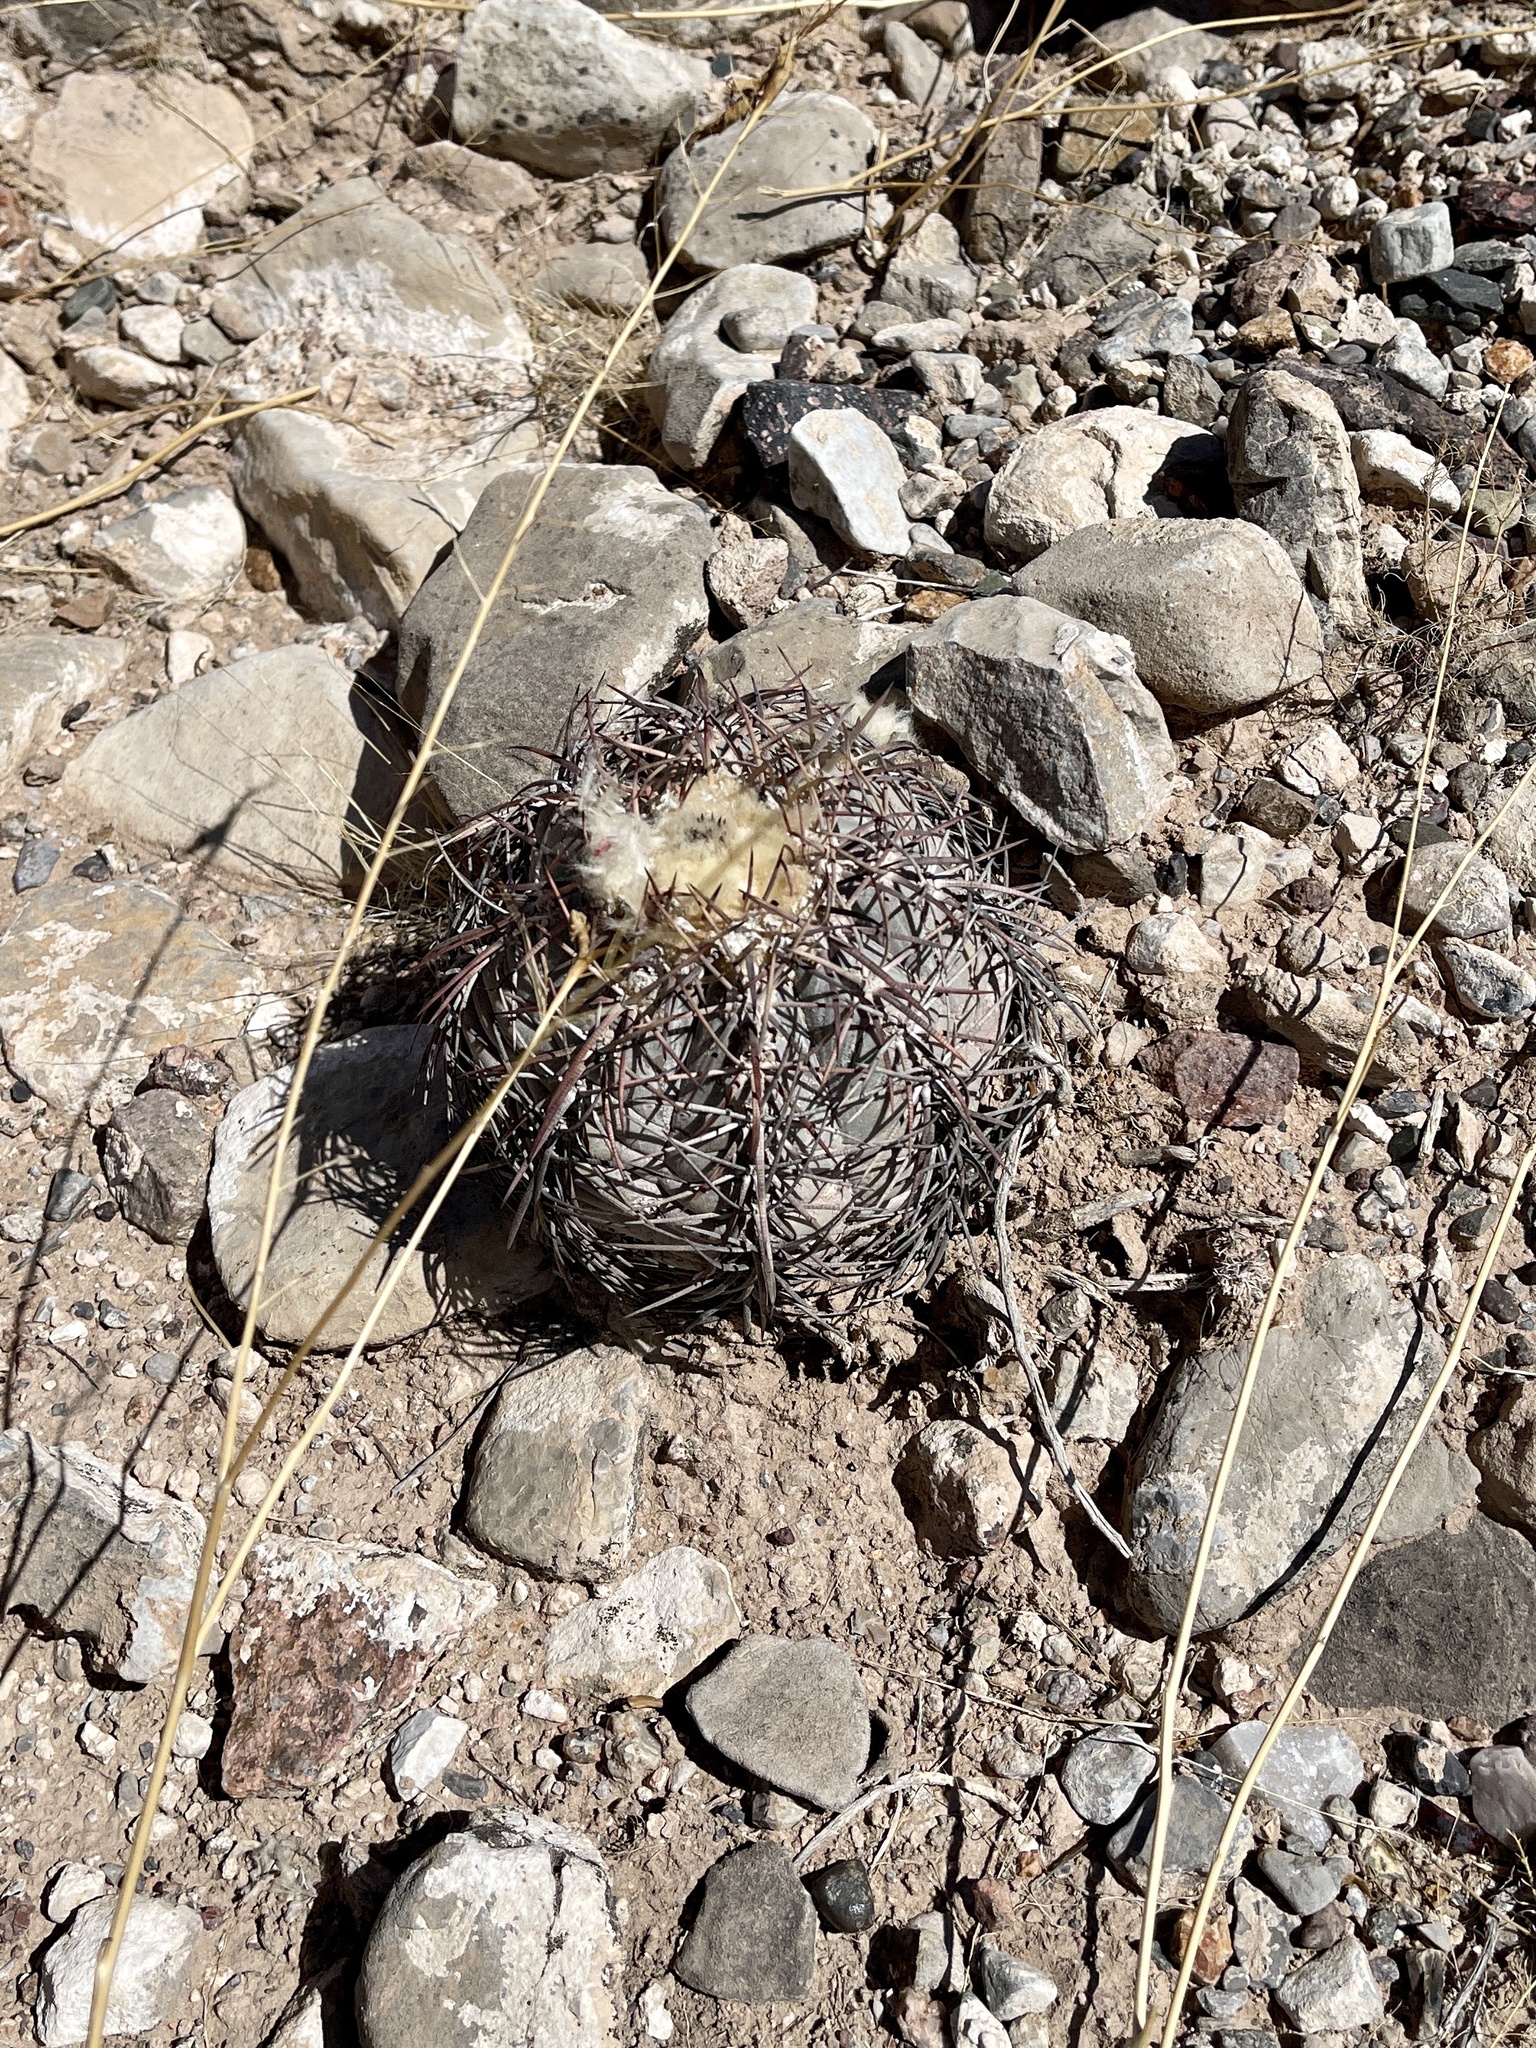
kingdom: Plantae
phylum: Tracheophyta
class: Magnoliopsida
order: Caryophyllales
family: Cactaceae
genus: Echinocactus
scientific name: Echinocactus horizonthalonius
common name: Devilshead
